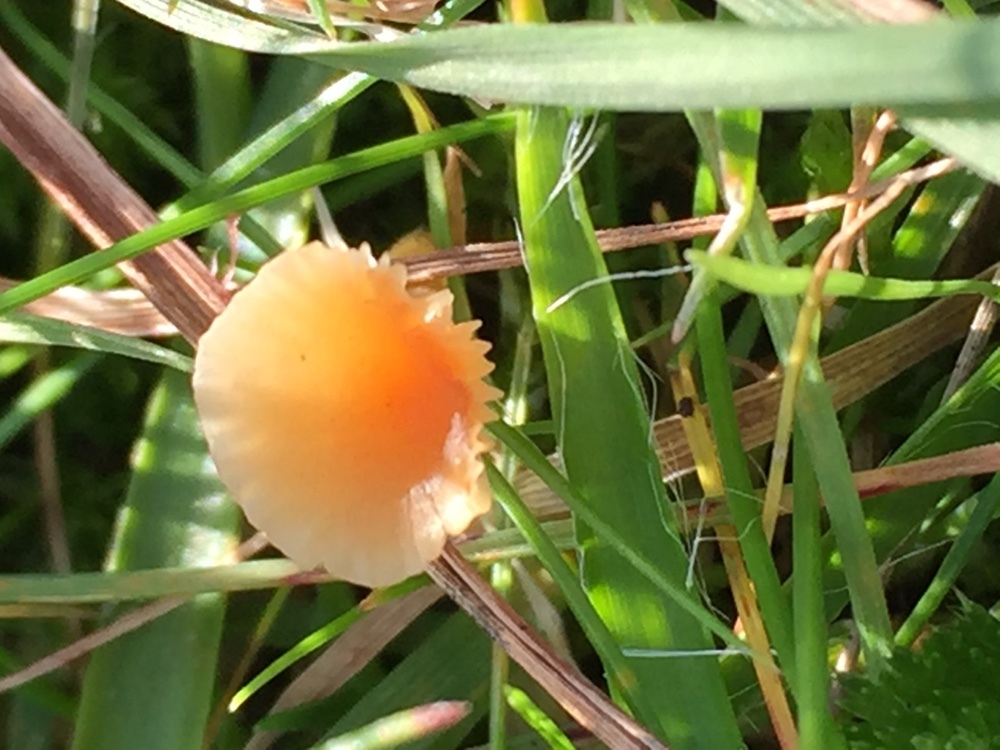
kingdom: Fungi
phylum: Basidiomycota
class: Agaricomycetes
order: Hymenochaetales
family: Rickenellaceae
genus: Rickenella
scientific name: Rickenella fibula
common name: Orange mosscap
